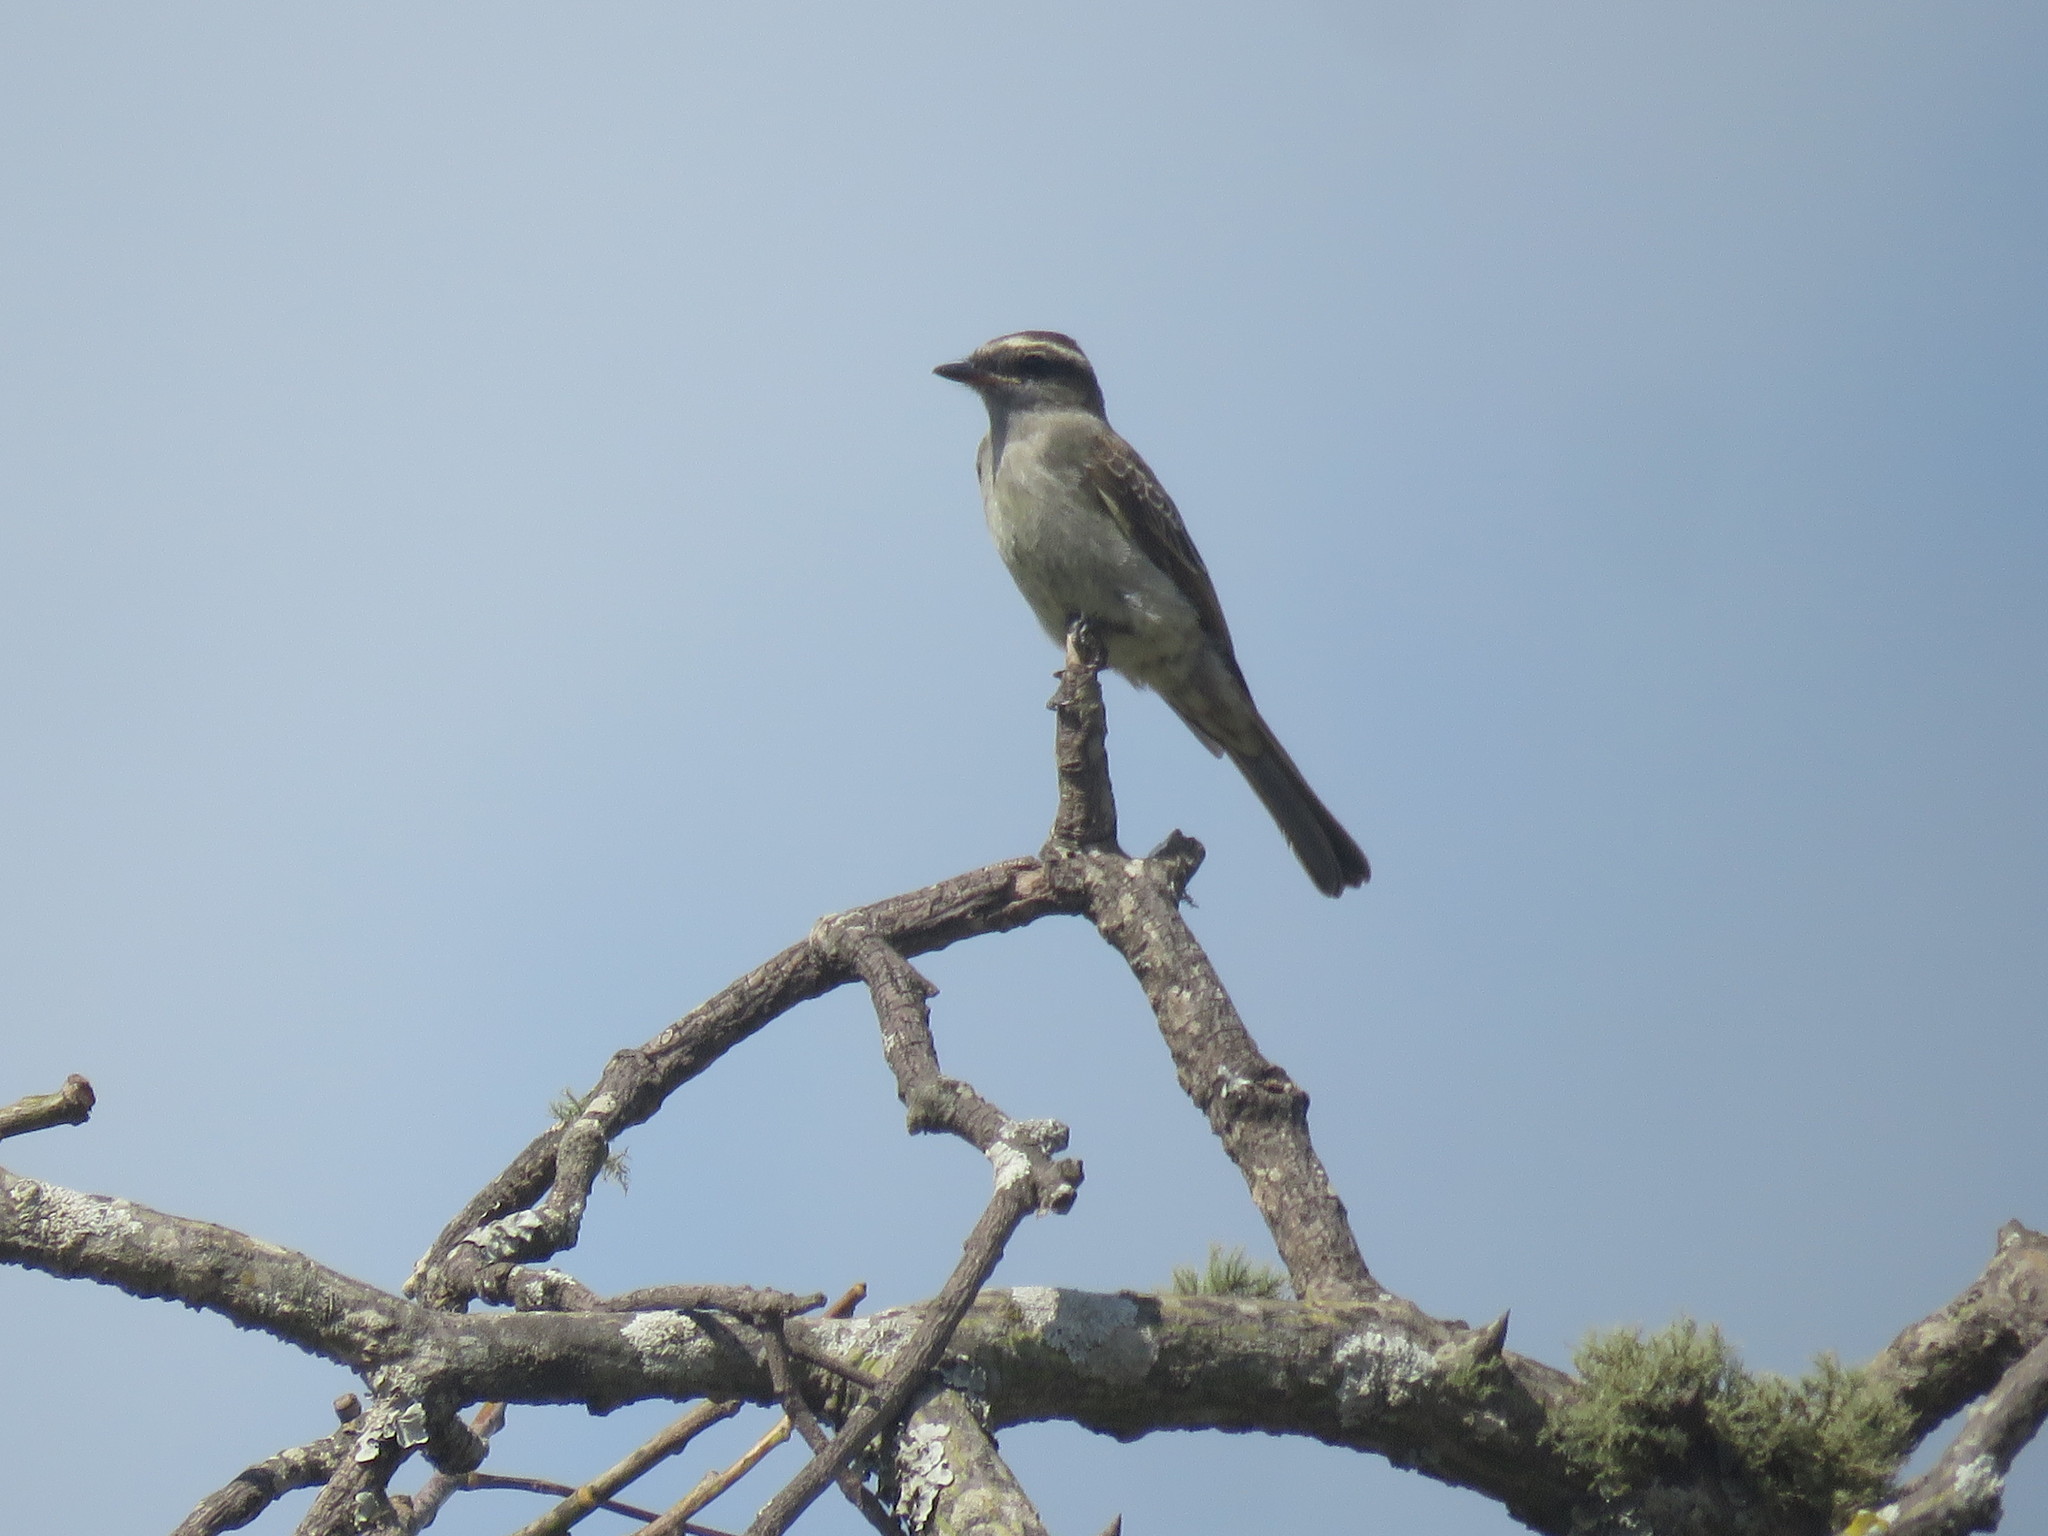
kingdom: Animalia
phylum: Chordata
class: Aves
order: Passeriformes
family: Tyrannidae
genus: Empidonomus
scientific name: Empidonomus aurantioatrocristatus
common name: Crowned slaty flycatcher
